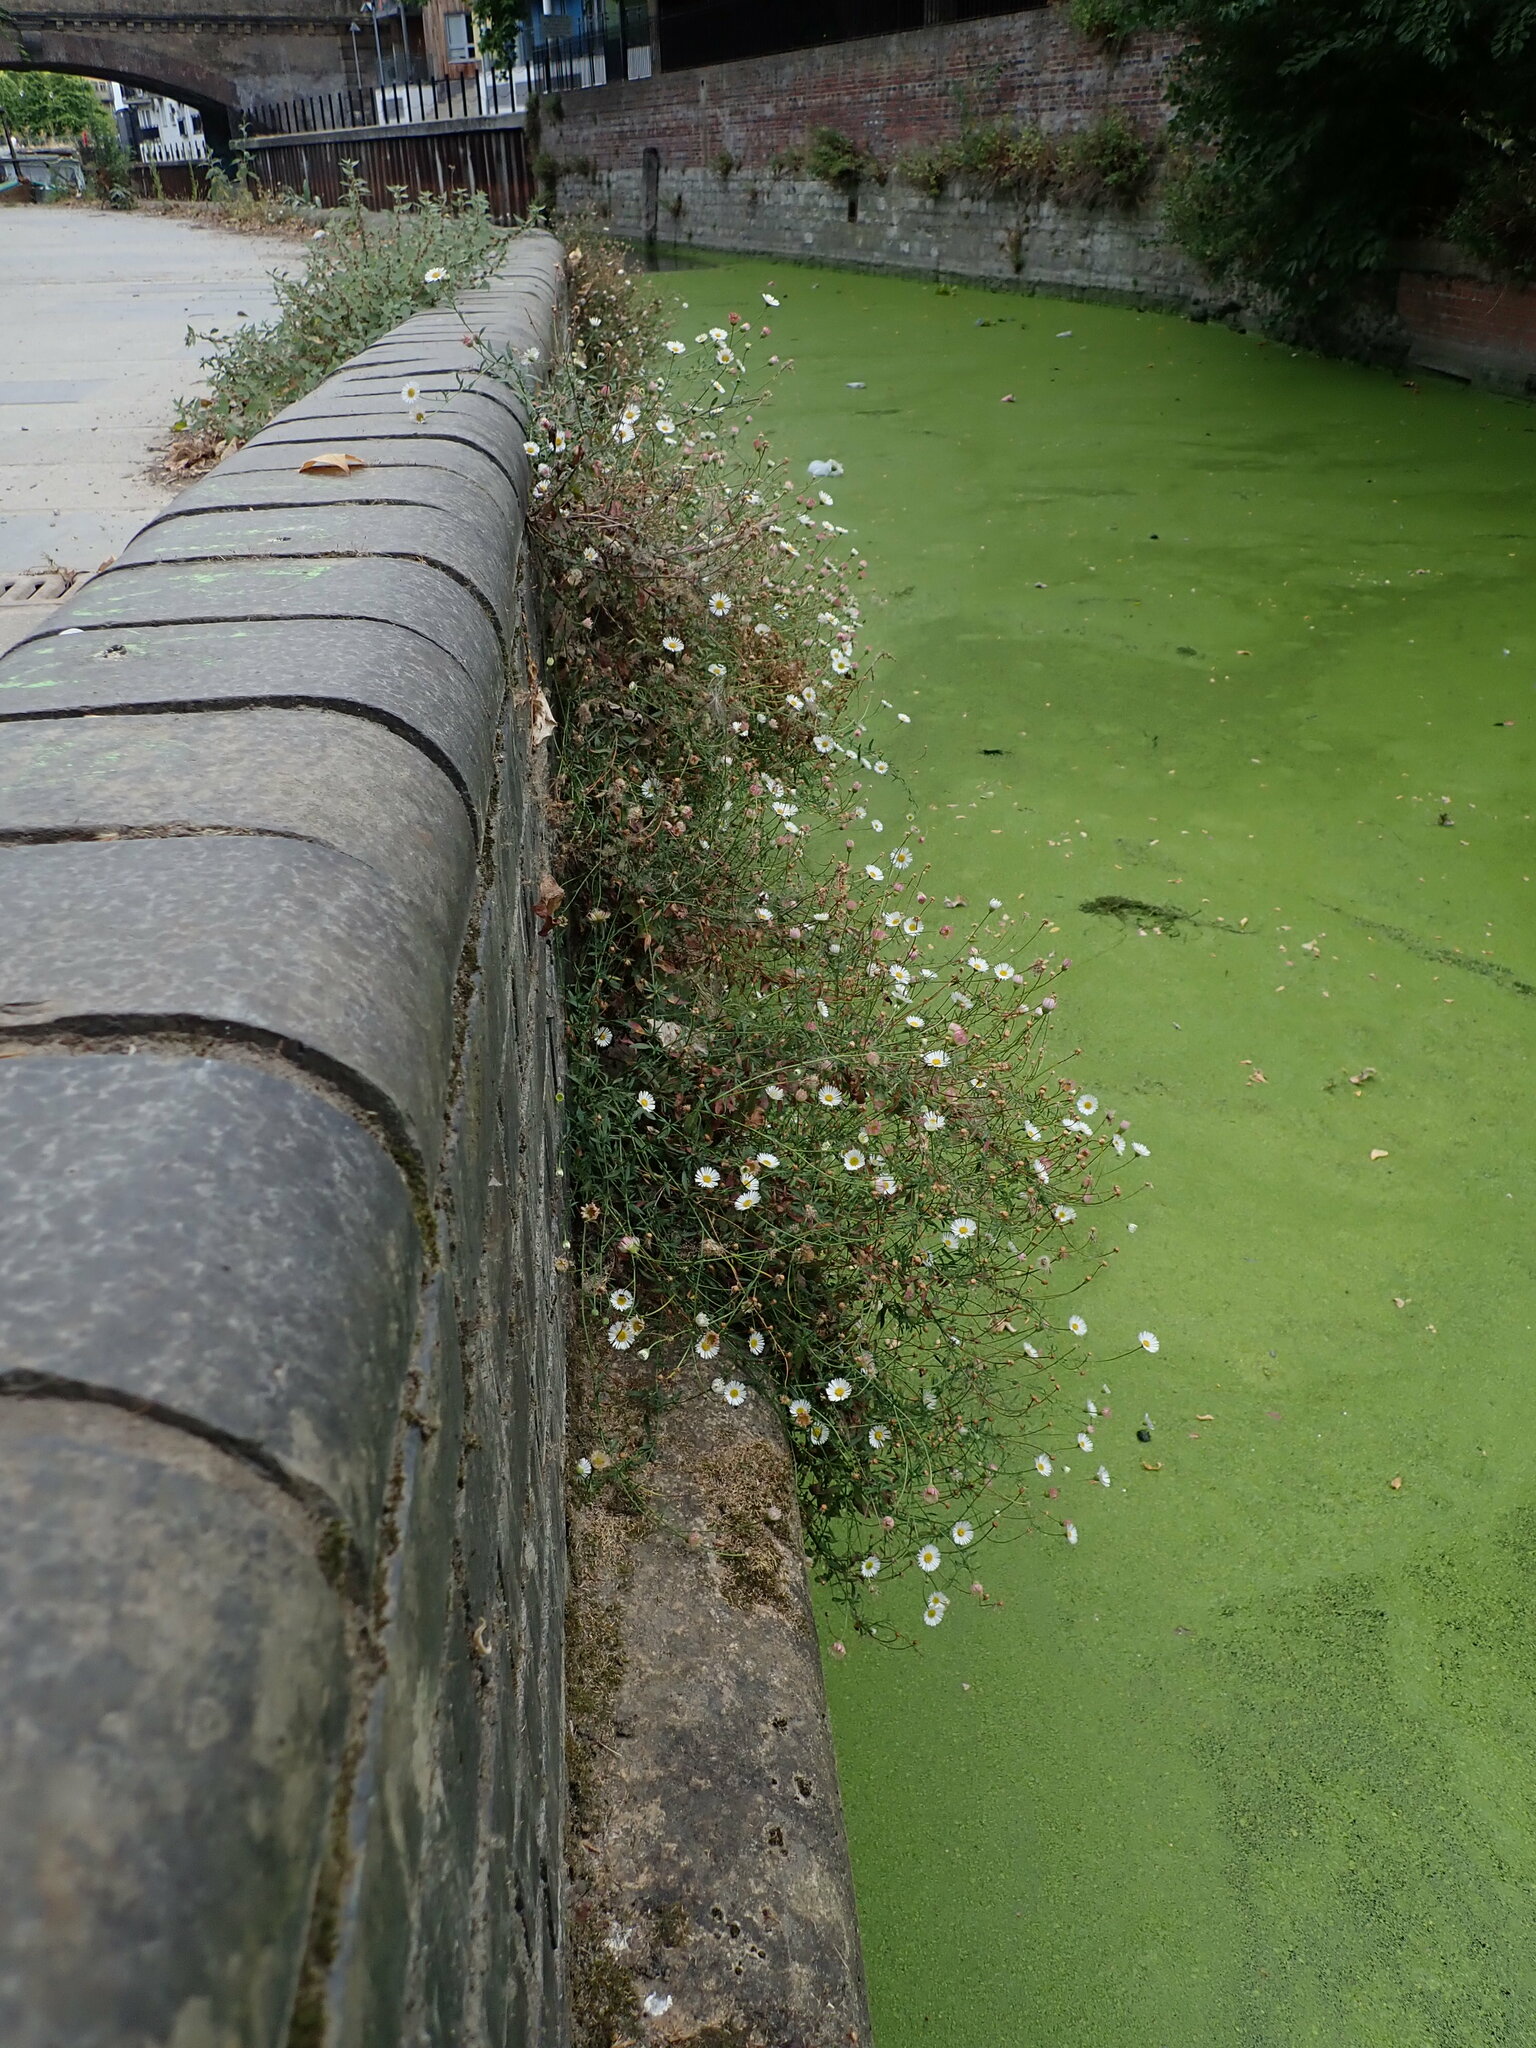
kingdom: Plantae
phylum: Tracheophyta
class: Magnoliopsida
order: Asterales
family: Asteraceae
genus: Erigeron
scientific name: Erigeron karvinskianus
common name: Mexican fleabane
